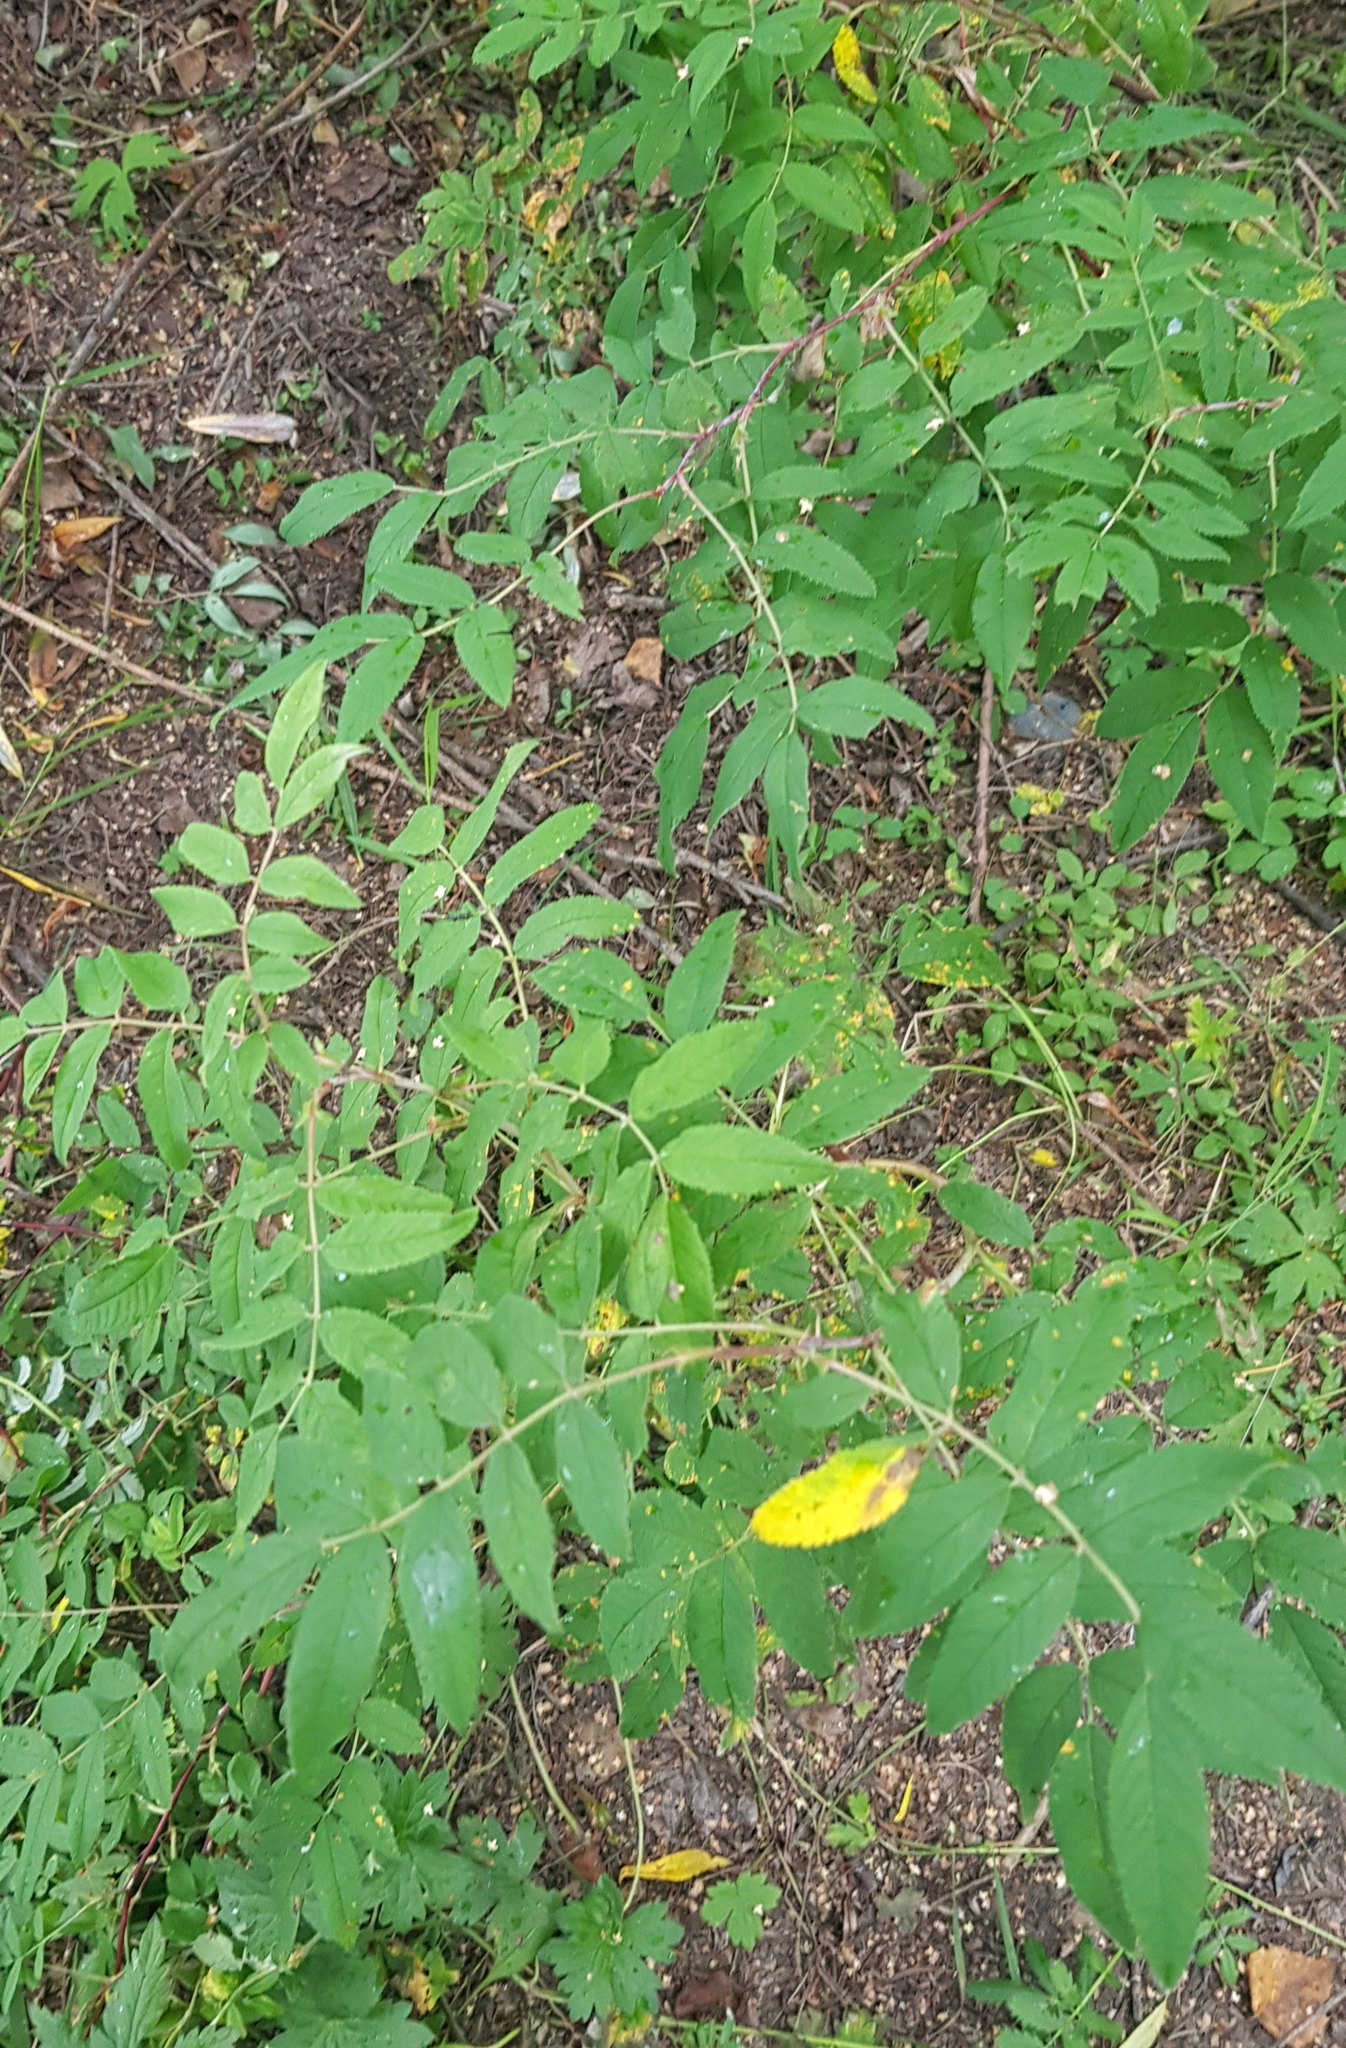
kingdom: Plantae
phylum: Tracheophyta
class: Magnoliopsida
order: Rosales
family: Rosaceae
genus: Sorbus
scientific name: Sorbus aucuparia
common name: Rowan
